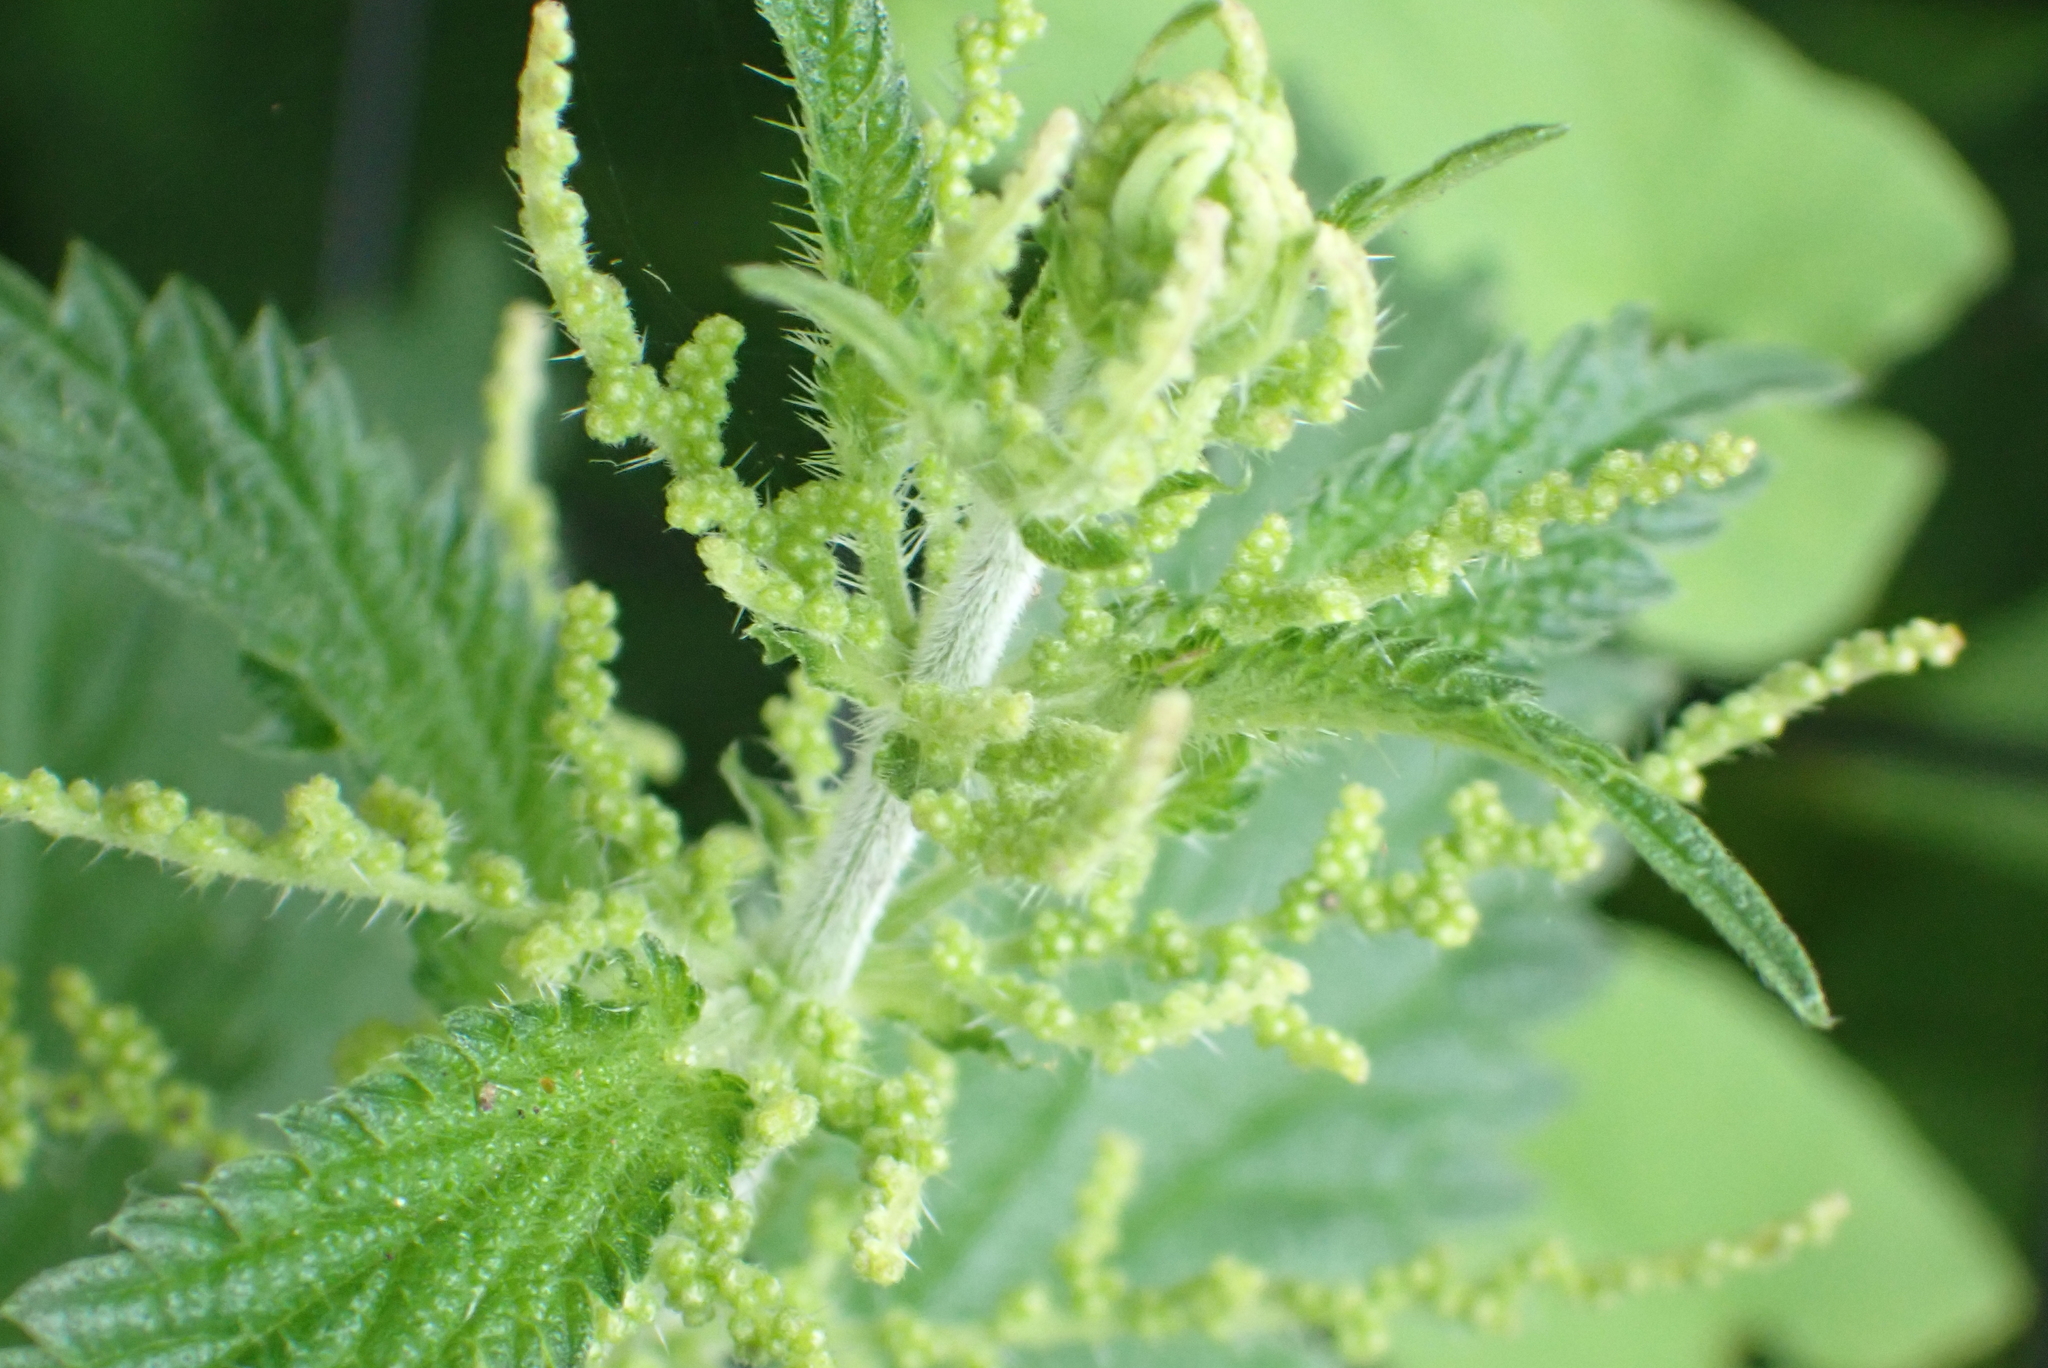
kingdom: Plantae
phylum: Tracheophyta
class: Magnoliopsida
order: Rosales
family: Urticaceae
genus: Urtica
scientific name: Urtica dioica
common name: Common nettle
